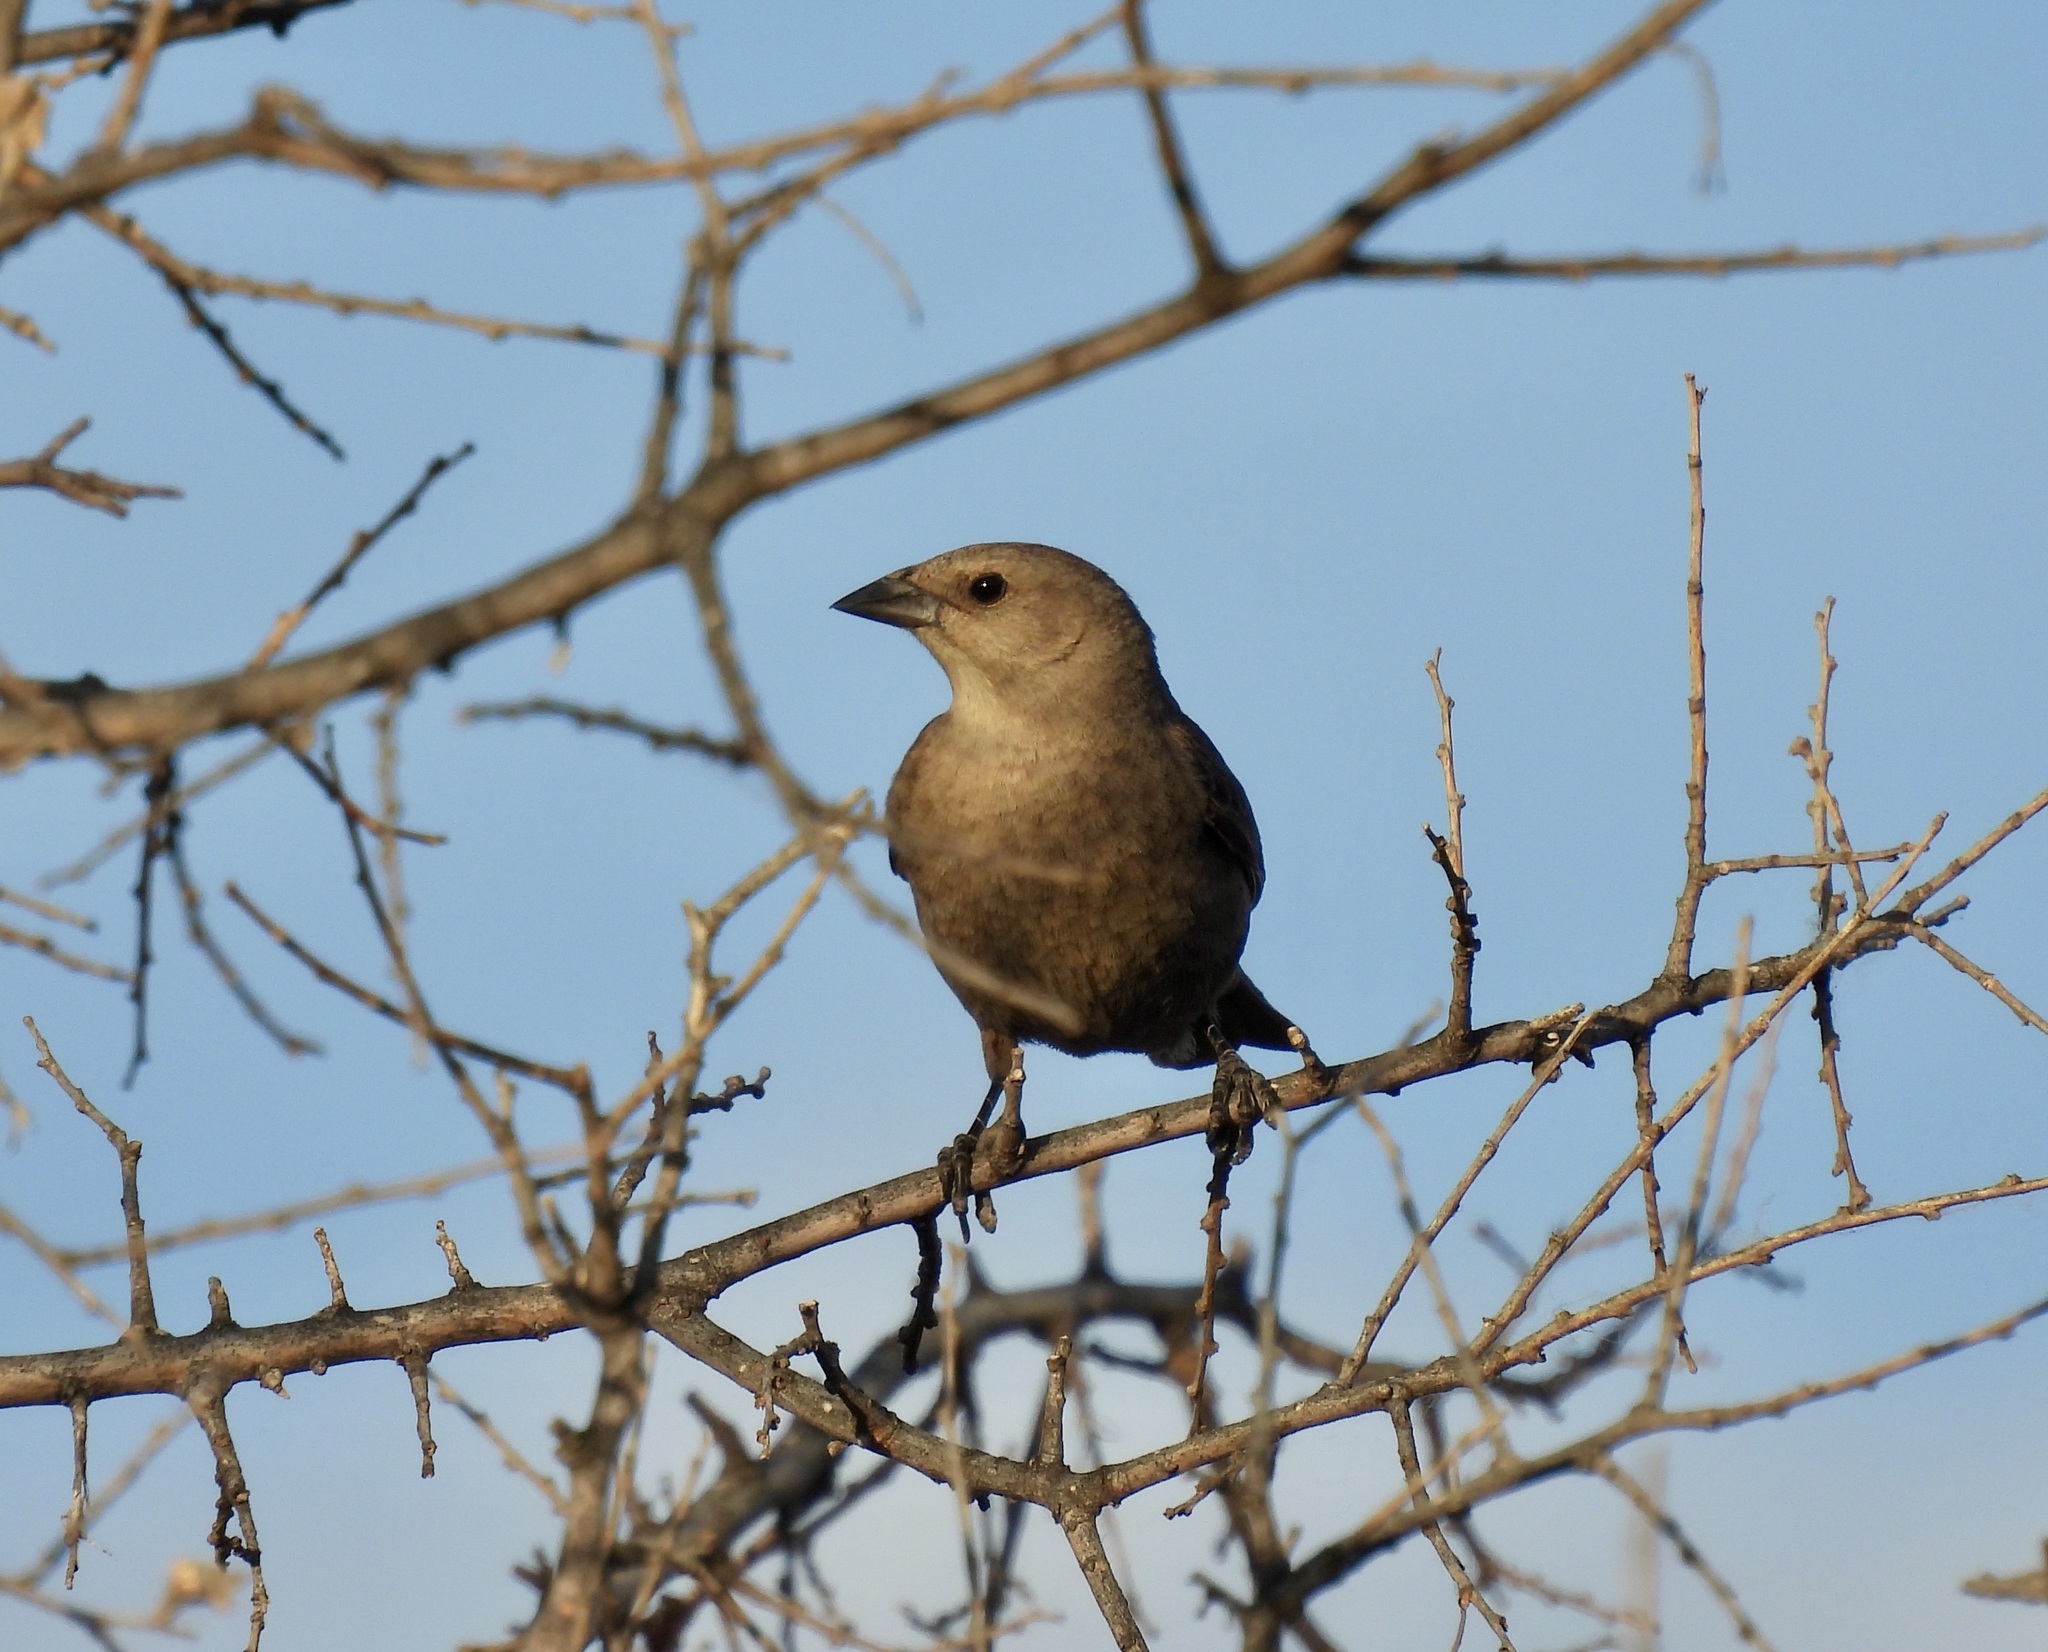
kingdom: Animalia
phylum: Chordata
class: Aves
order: Passeriformes
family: Icteridae
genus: Molothrus
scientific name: Molothrus ater
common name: Brown-headed cowbird
